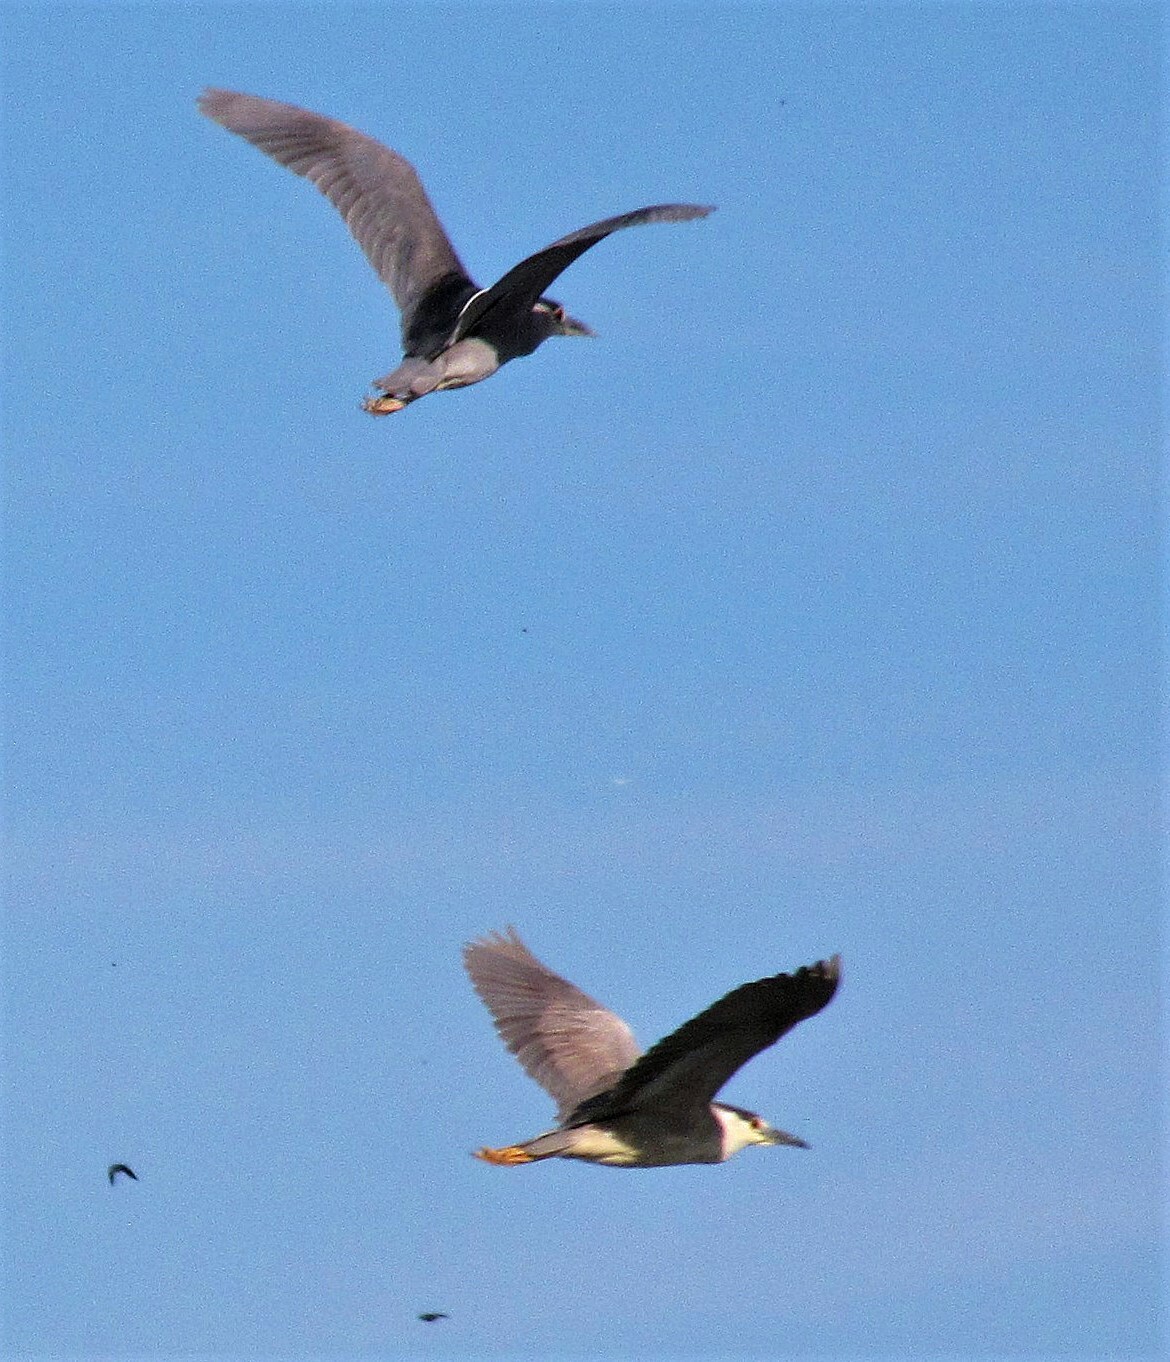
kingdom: Animalia
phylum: Chordata
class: Aves
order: Pelecaniformes
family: Ardeidae
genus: Nycticorax
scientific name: Nycticorax nycticorax
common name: Black-crowned night heron
